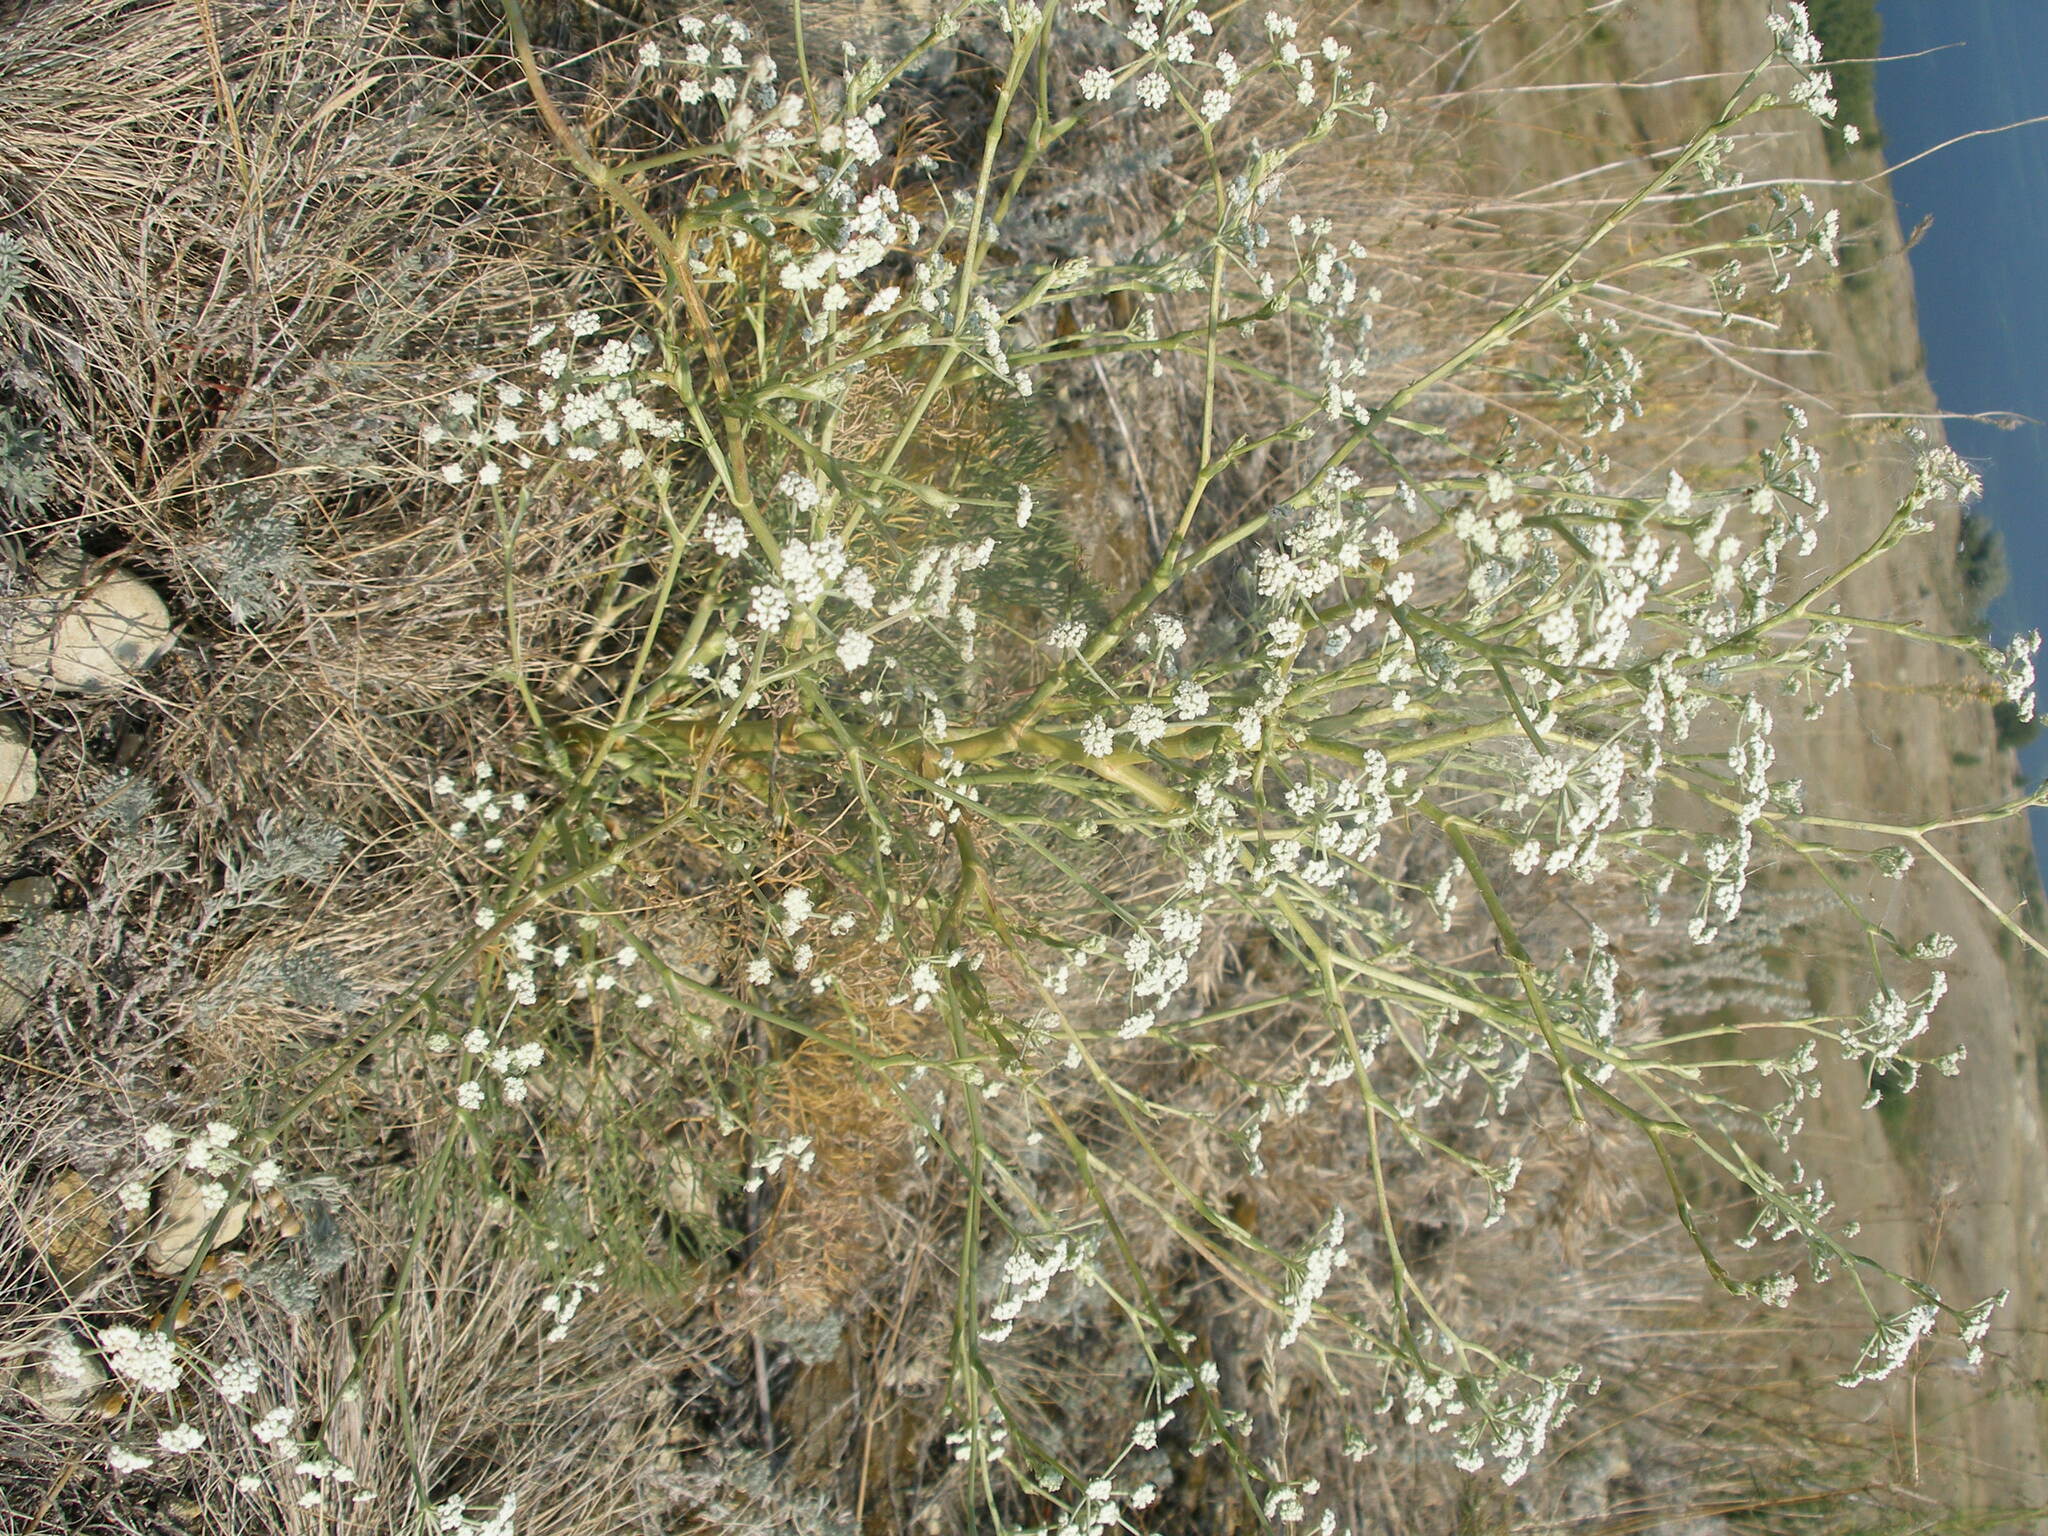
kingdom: Plantae
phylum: Tracheophyta
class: Magnoliopsida
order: Apiales
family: Apiaceae
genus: Seseli
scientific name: Seseli arenarium
